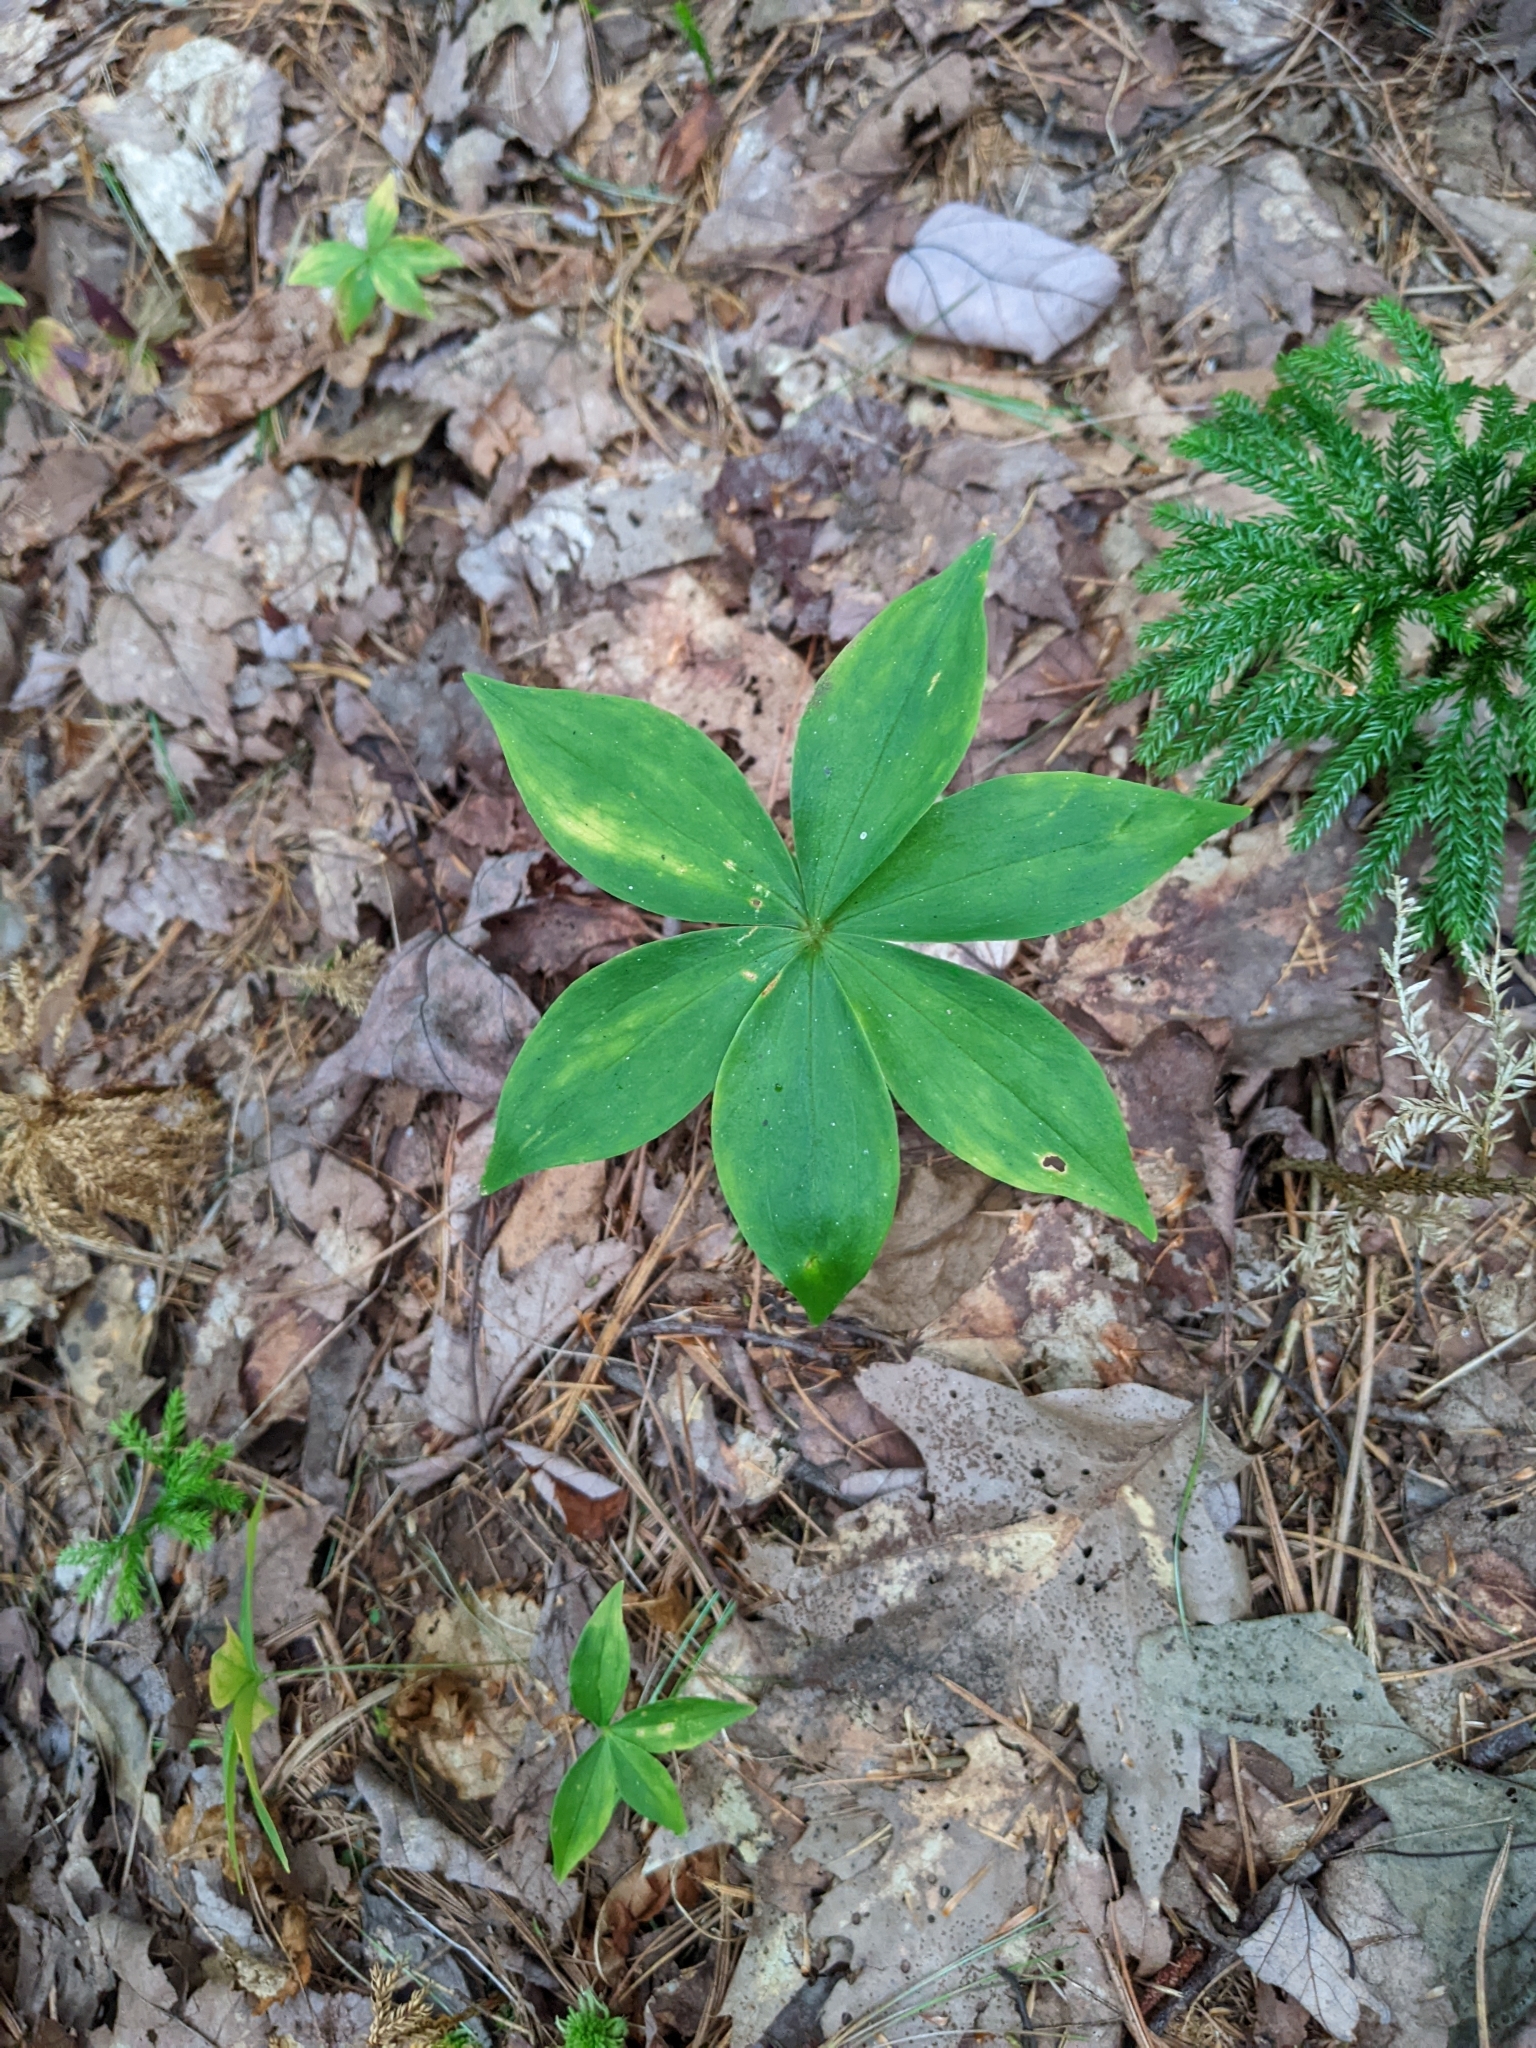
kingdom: Plantae
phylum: Tracheophyta
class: Liliopsida
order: Liliales
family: Liliaceae
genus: Medeola
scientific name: Medeola virginiana
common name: Indian cucumber-root
